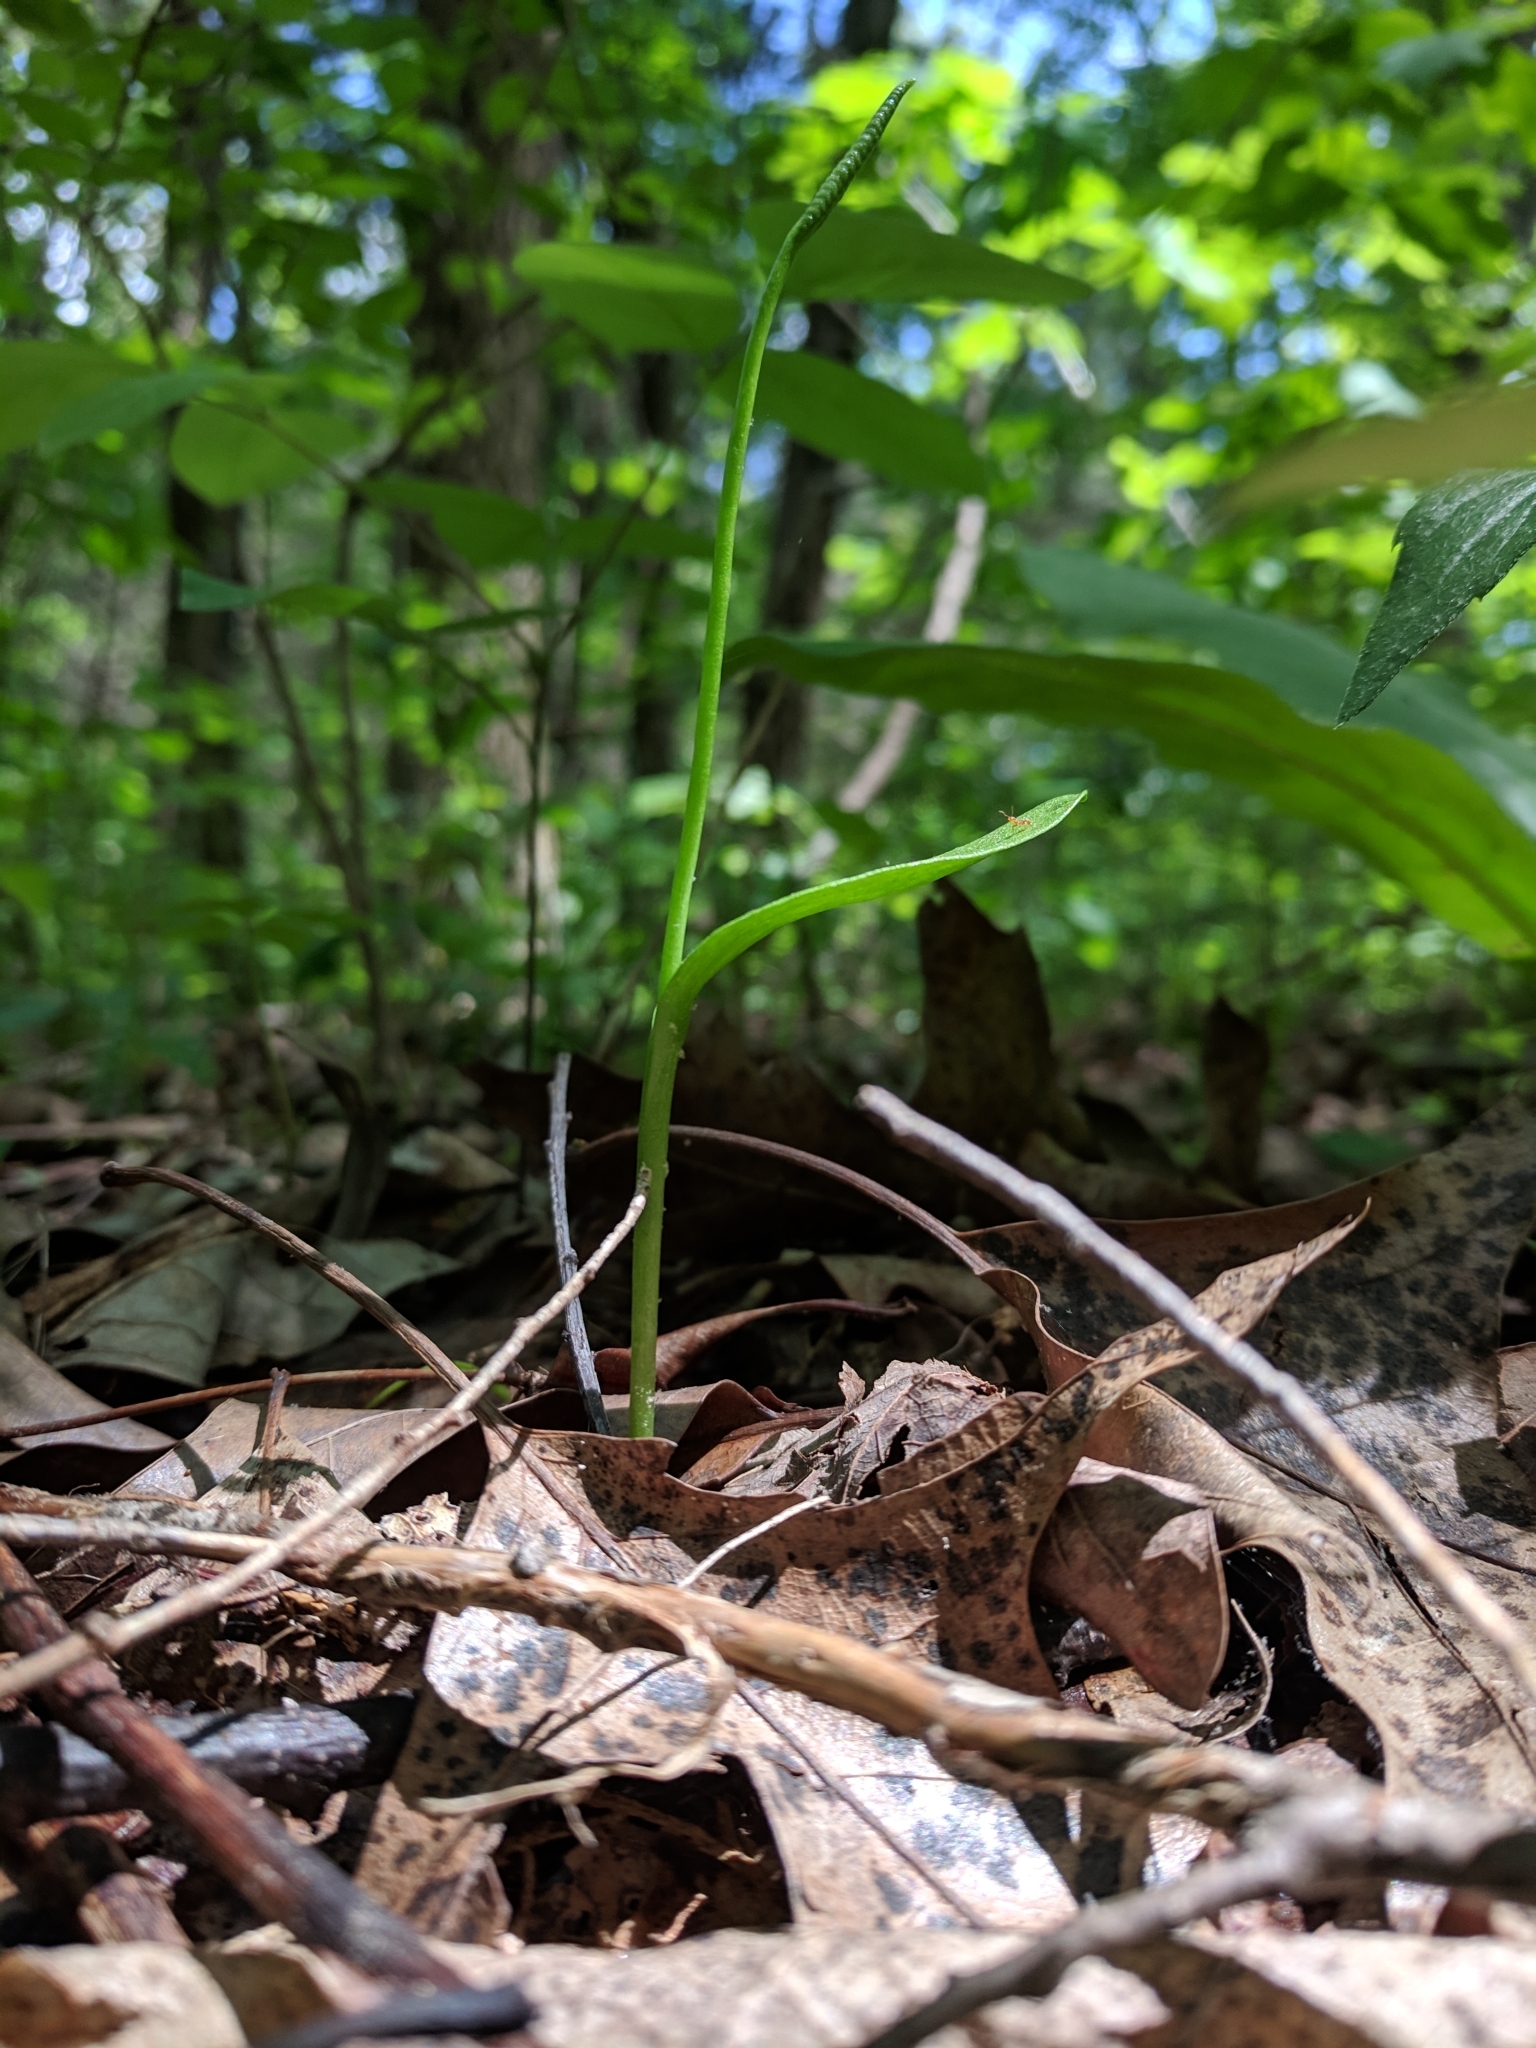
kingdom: Plantae
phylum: Tracheophyta
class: Polypodiopsida
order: Ophioglossales
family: Ophioglossaceae
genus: Ophioglossum
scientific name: Ophioglossum vulgatum
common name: Adder's-tongue
